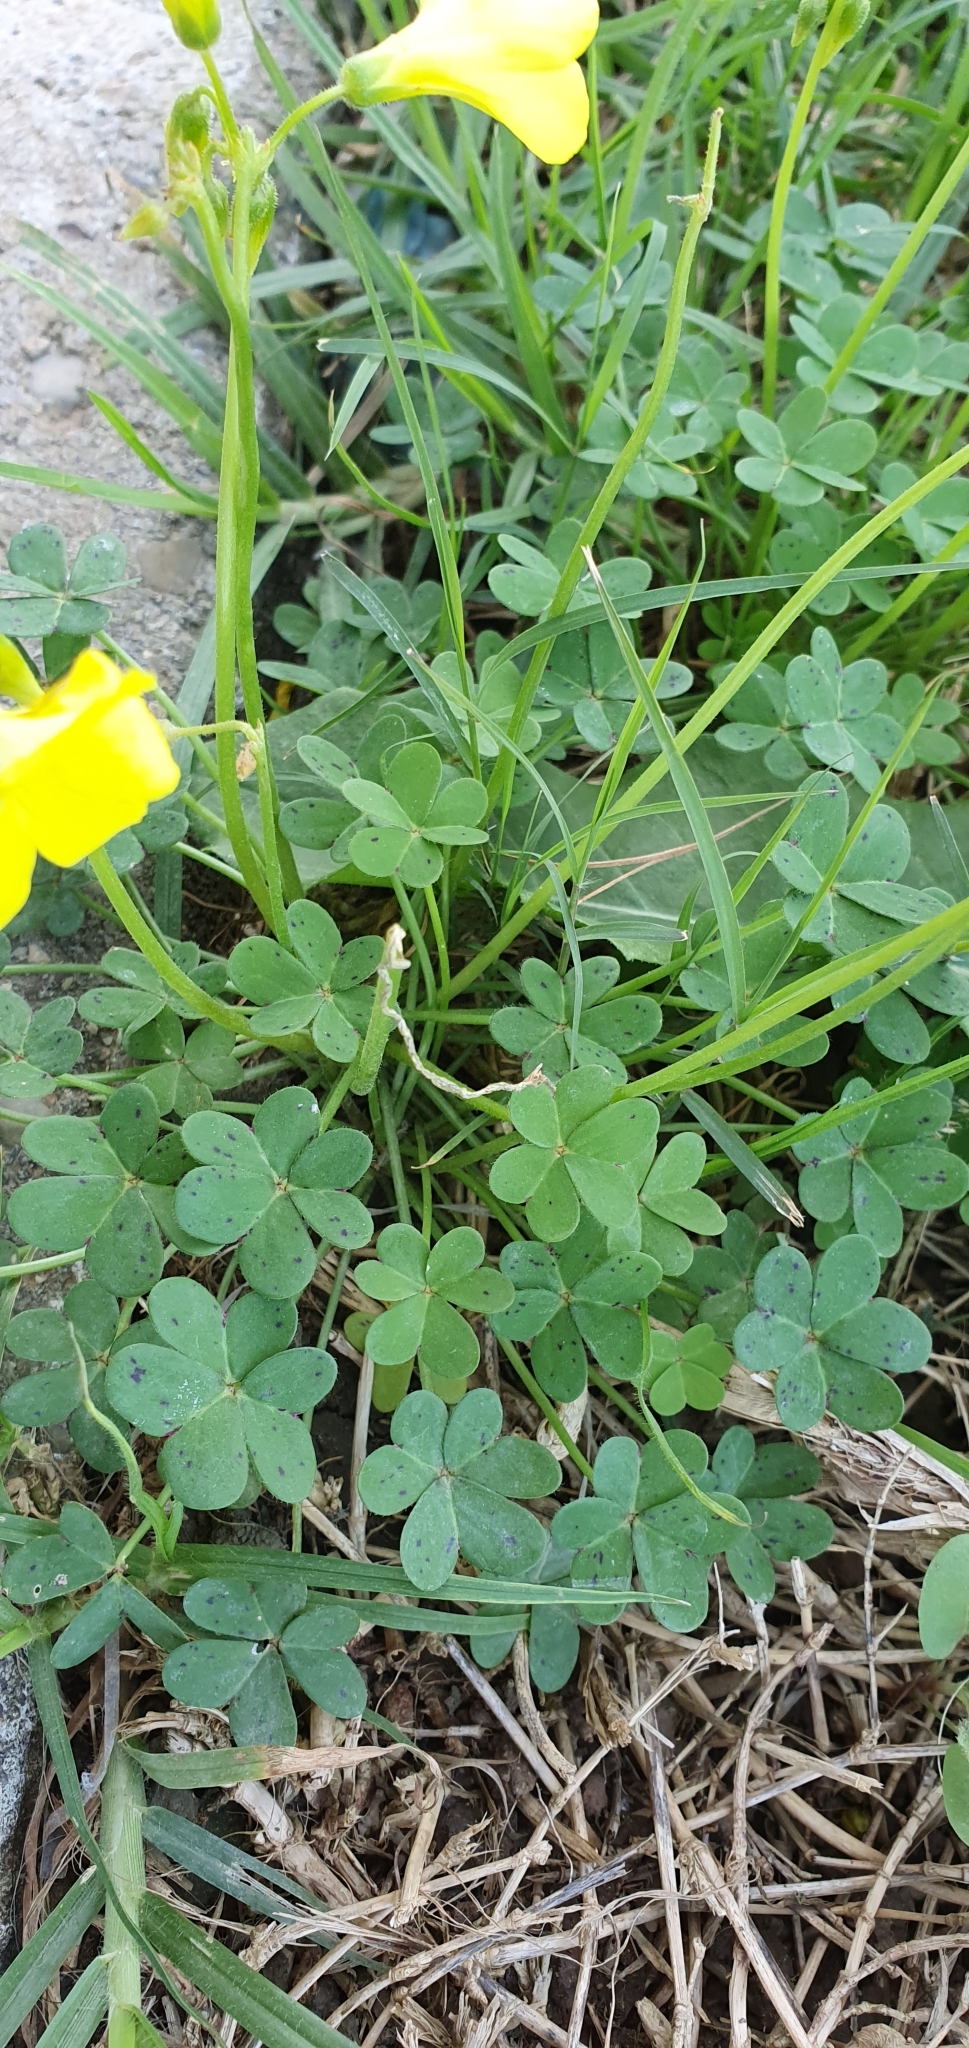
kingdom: Plantae
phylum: Tracheophyta
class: Magnoliopsida
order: Oxalidales
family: Oxalidaceae
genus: Oxalis
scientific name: Oxalis pes-caprae
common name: Bermuda-buttercup
